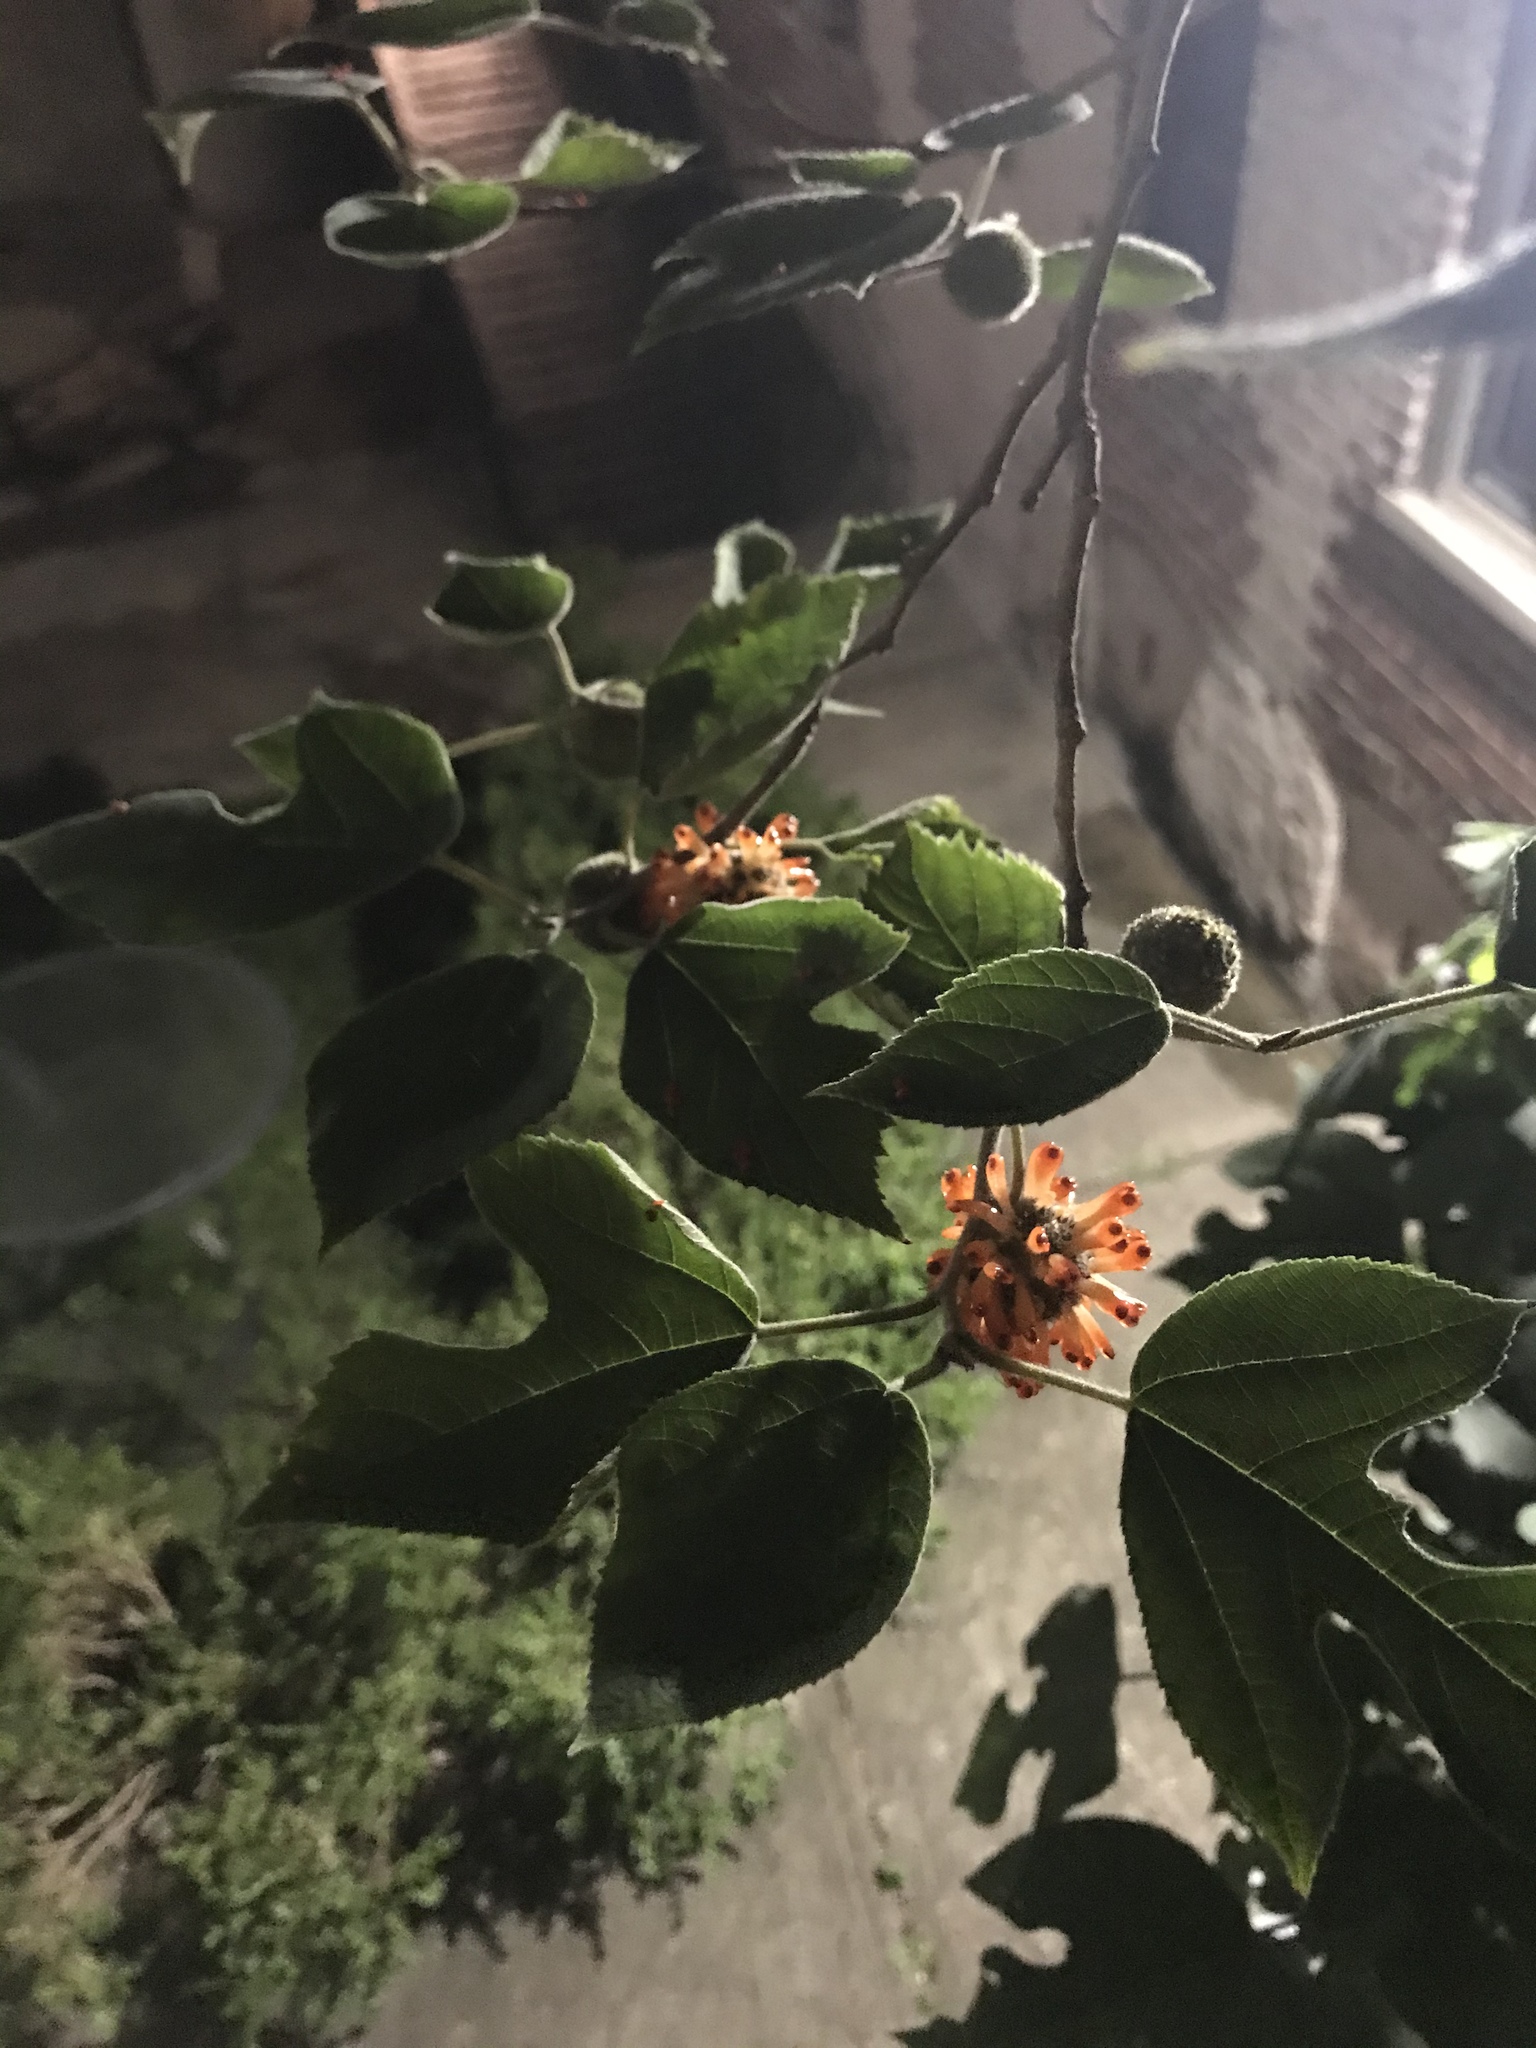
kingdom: Plantae
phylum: Tracheophyta
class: Magnoliopsida
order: Rosales
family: Moraceae
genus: Broussonetia
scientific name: Broussonetia papyrifera
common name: Paper mulberry
